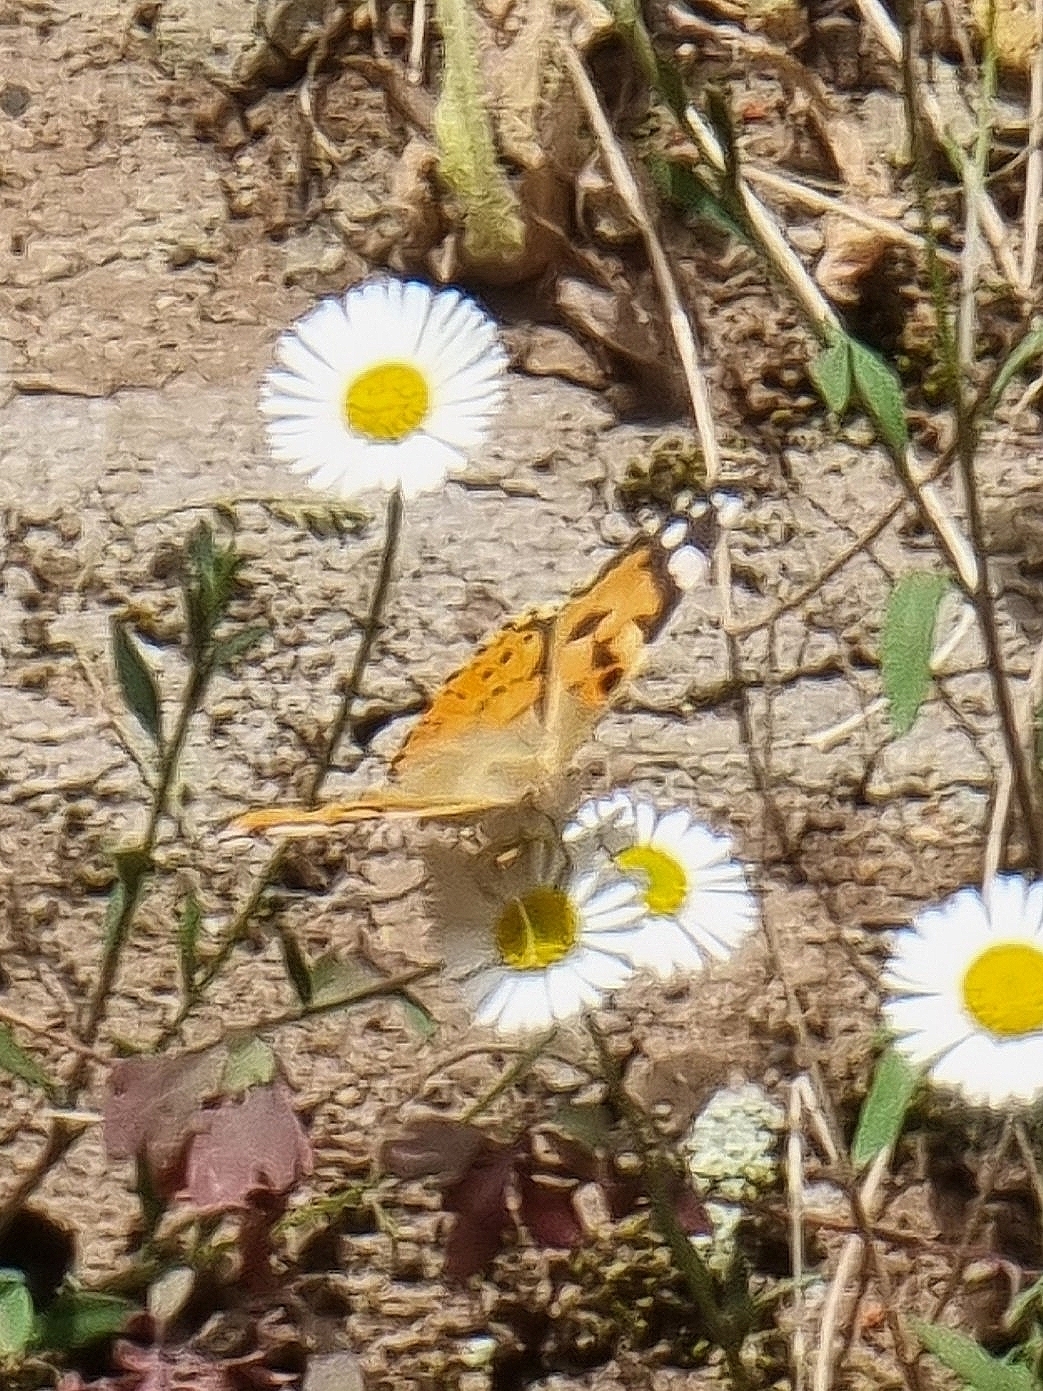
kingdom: Animalia
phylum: Arthropoda
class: Insecta
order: Lepidoptera
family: Nymphalidae
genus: Vanessa
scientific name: Vanessa cardui
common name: Painted lady
